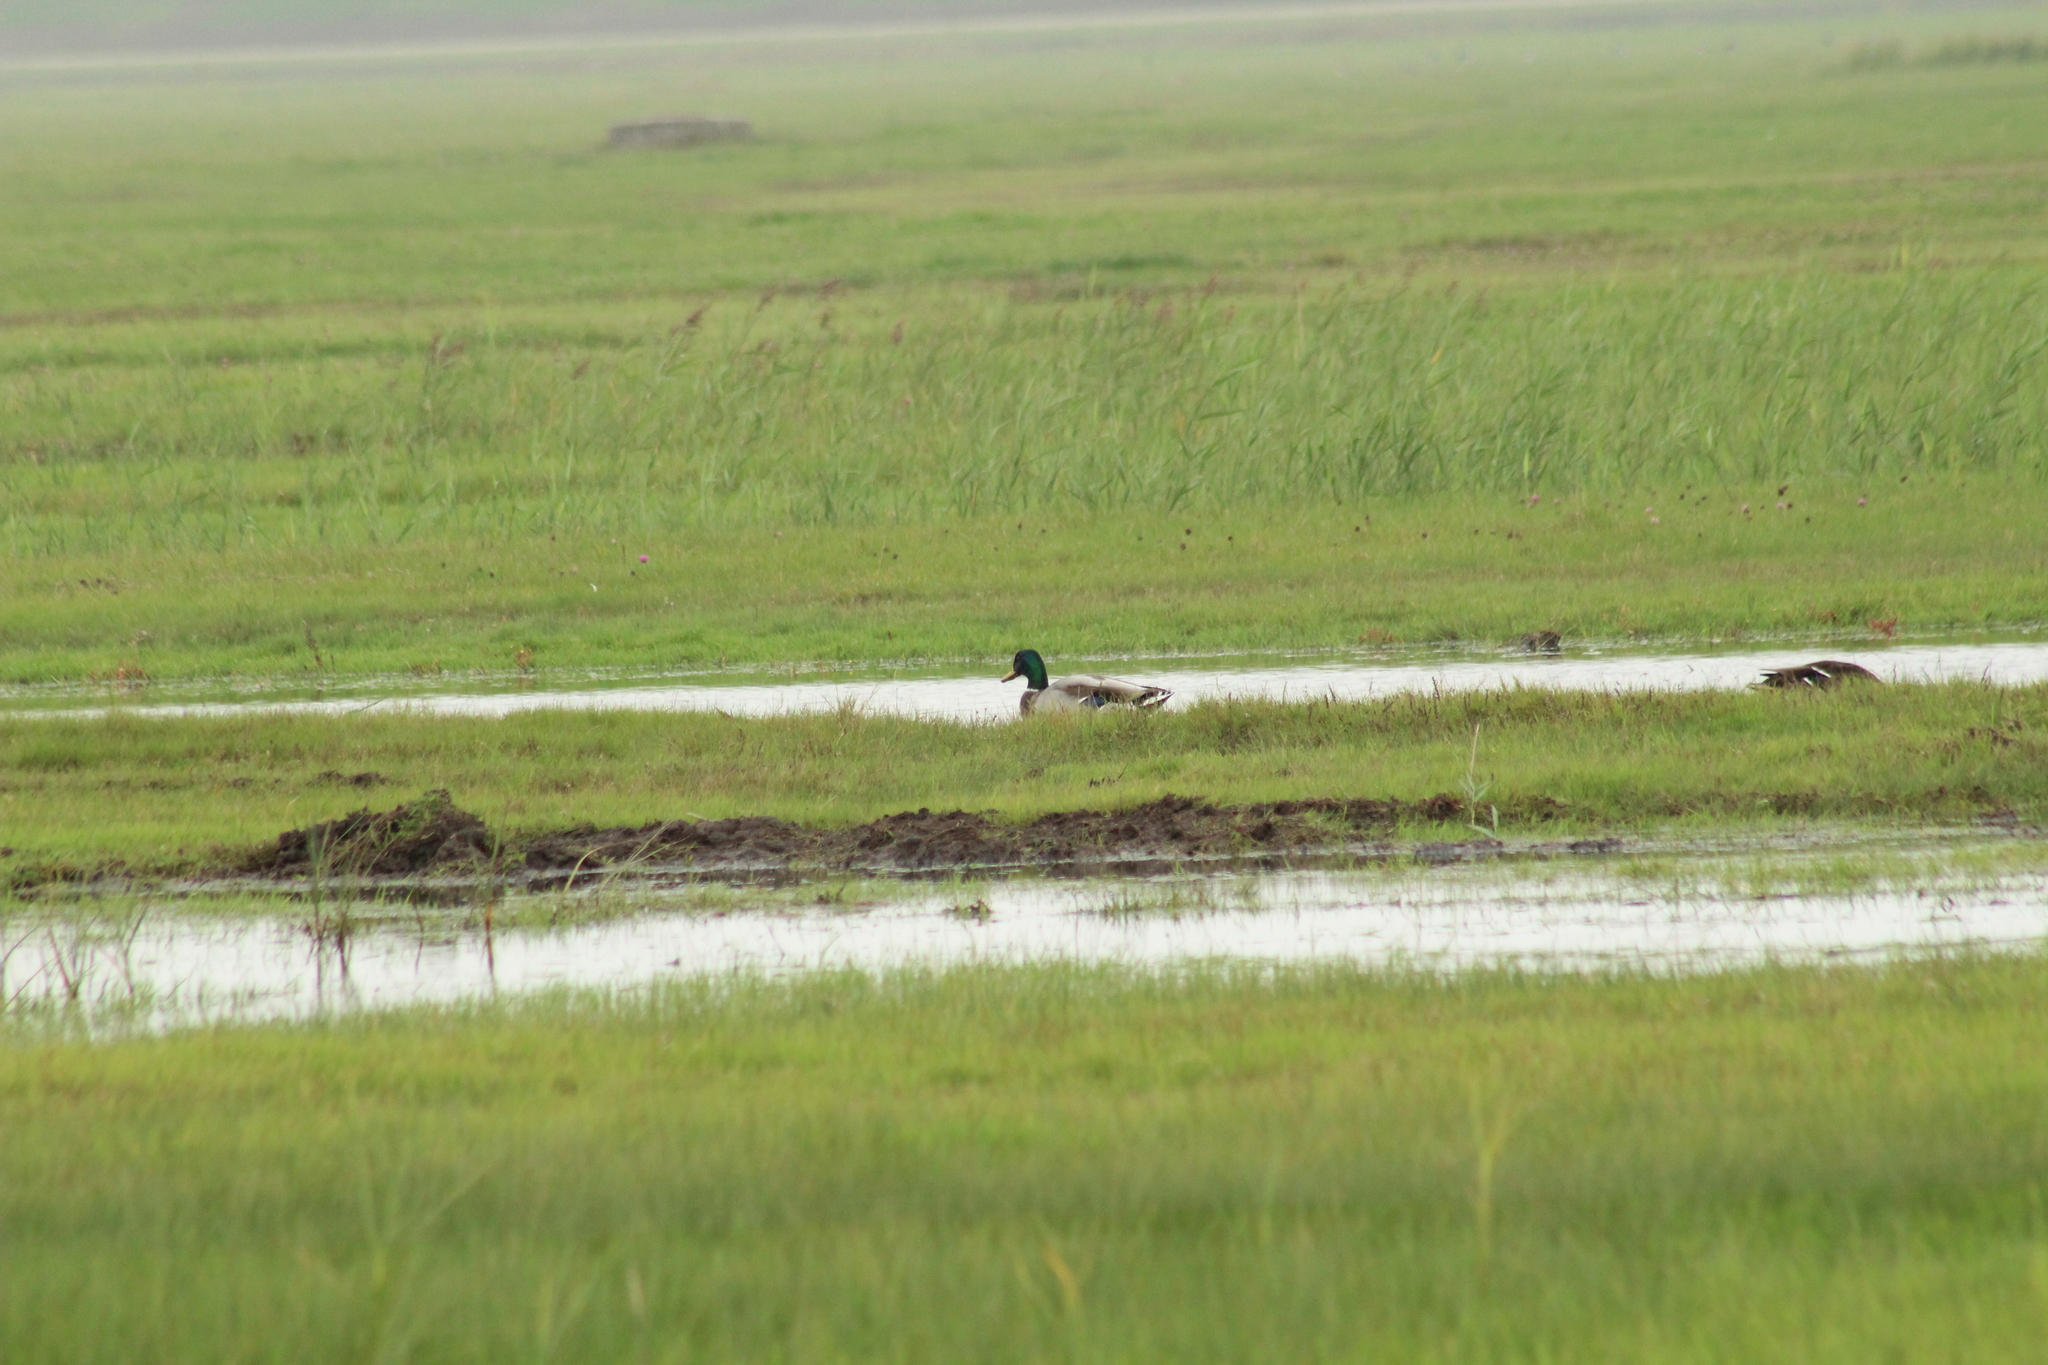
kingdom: Animalia
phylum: Chordata
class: Aves
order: Anseriformes
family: Anatidae
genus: Anas
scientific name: Anas platyrhynchos
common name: Mallard
